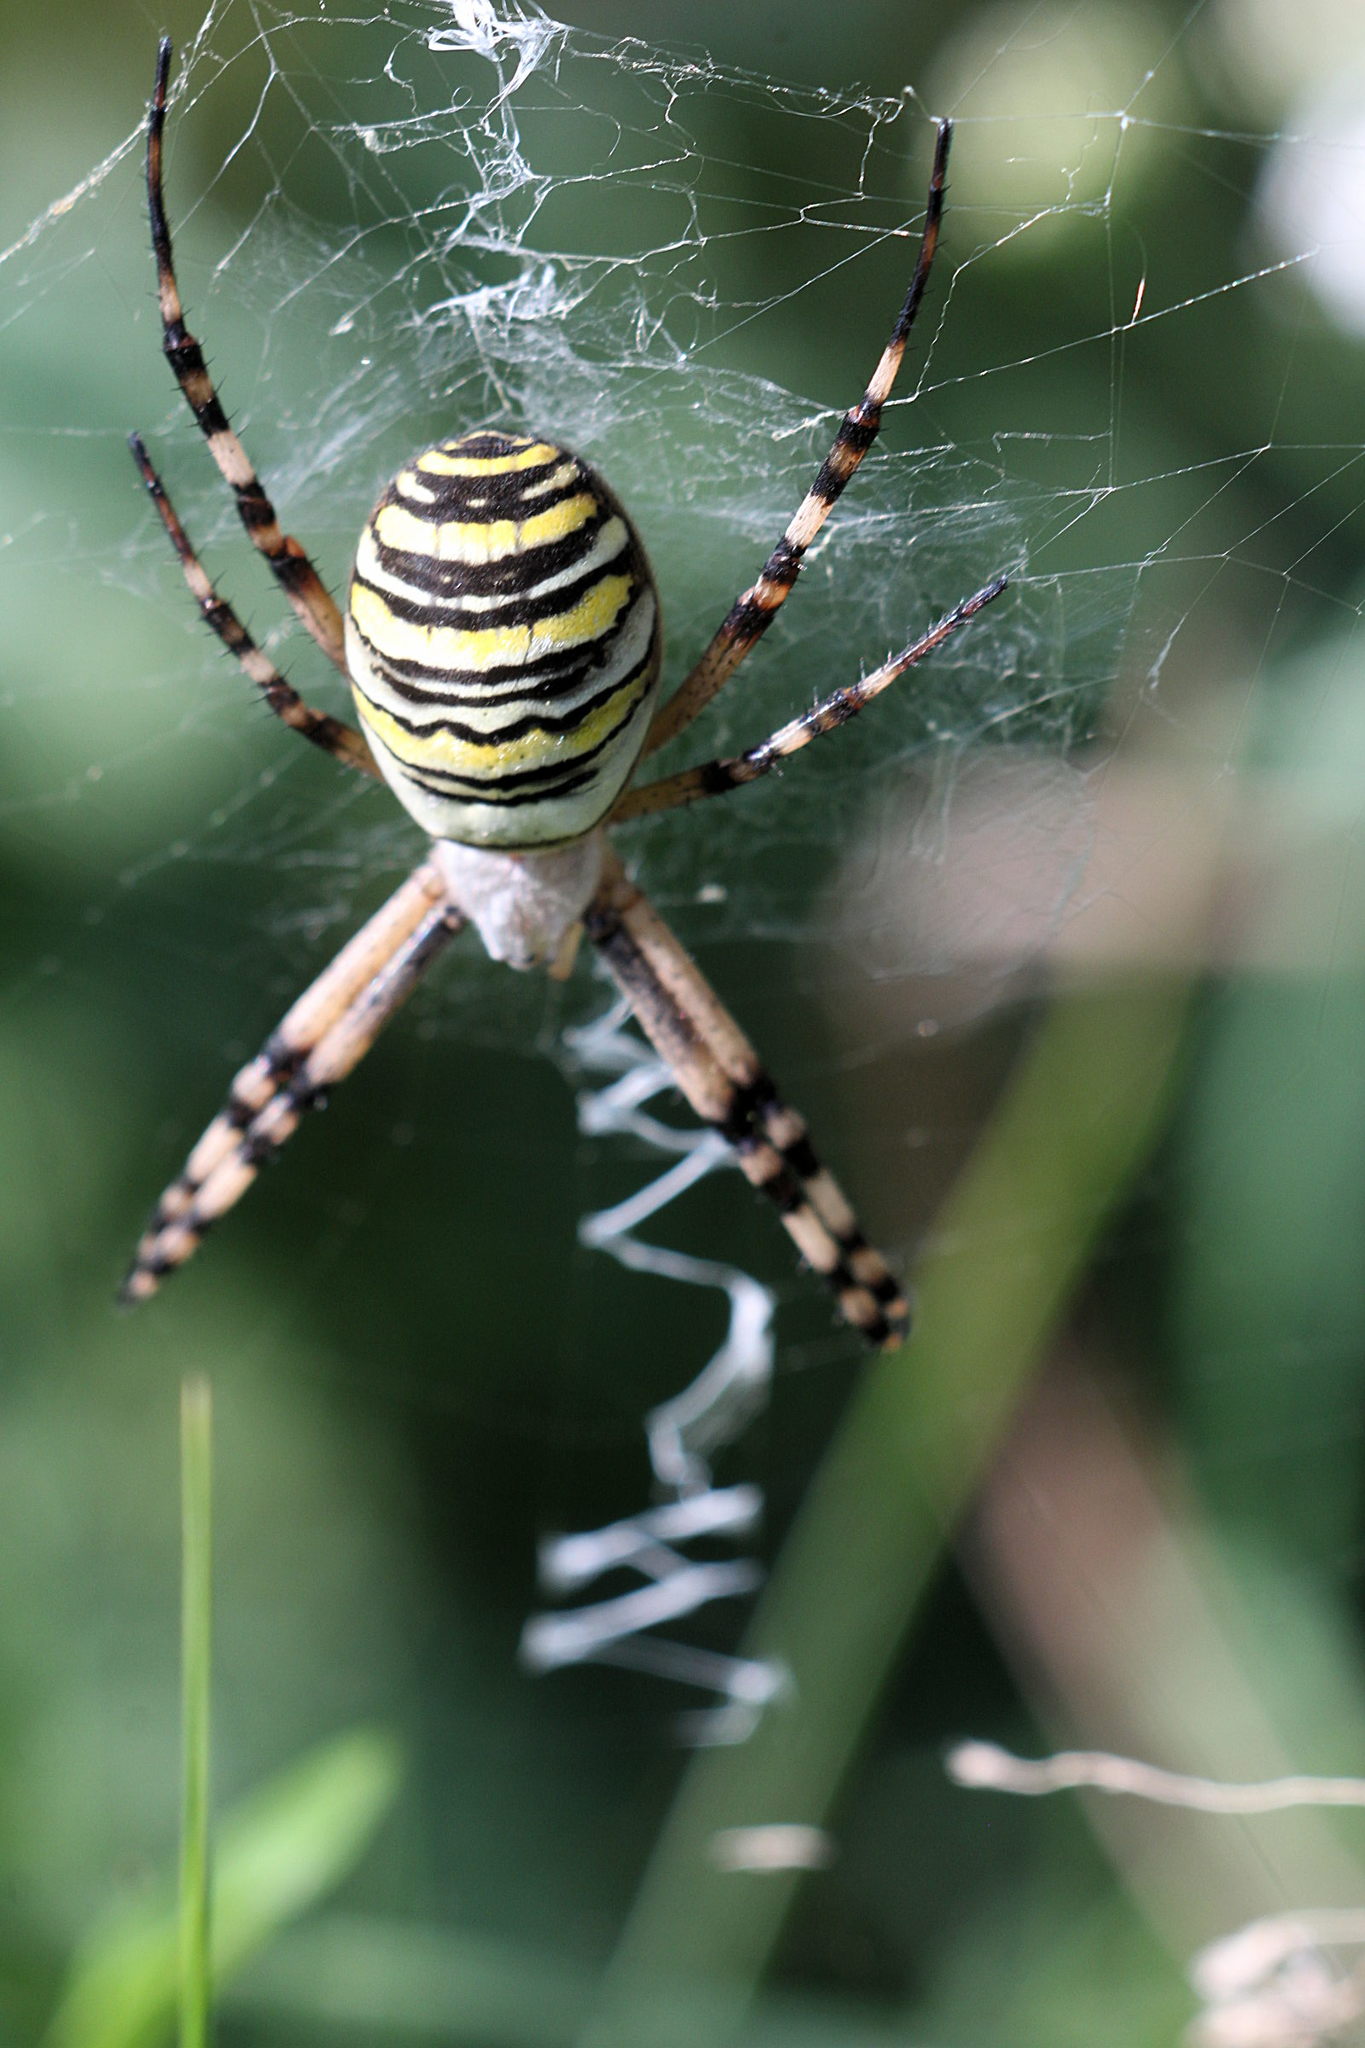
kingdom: Animalia
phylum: Arthropoda
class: Arachnida
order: Araneae
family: Araneidae
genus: Argiope
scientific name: Argiope bruennichi
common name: Wasp spider
